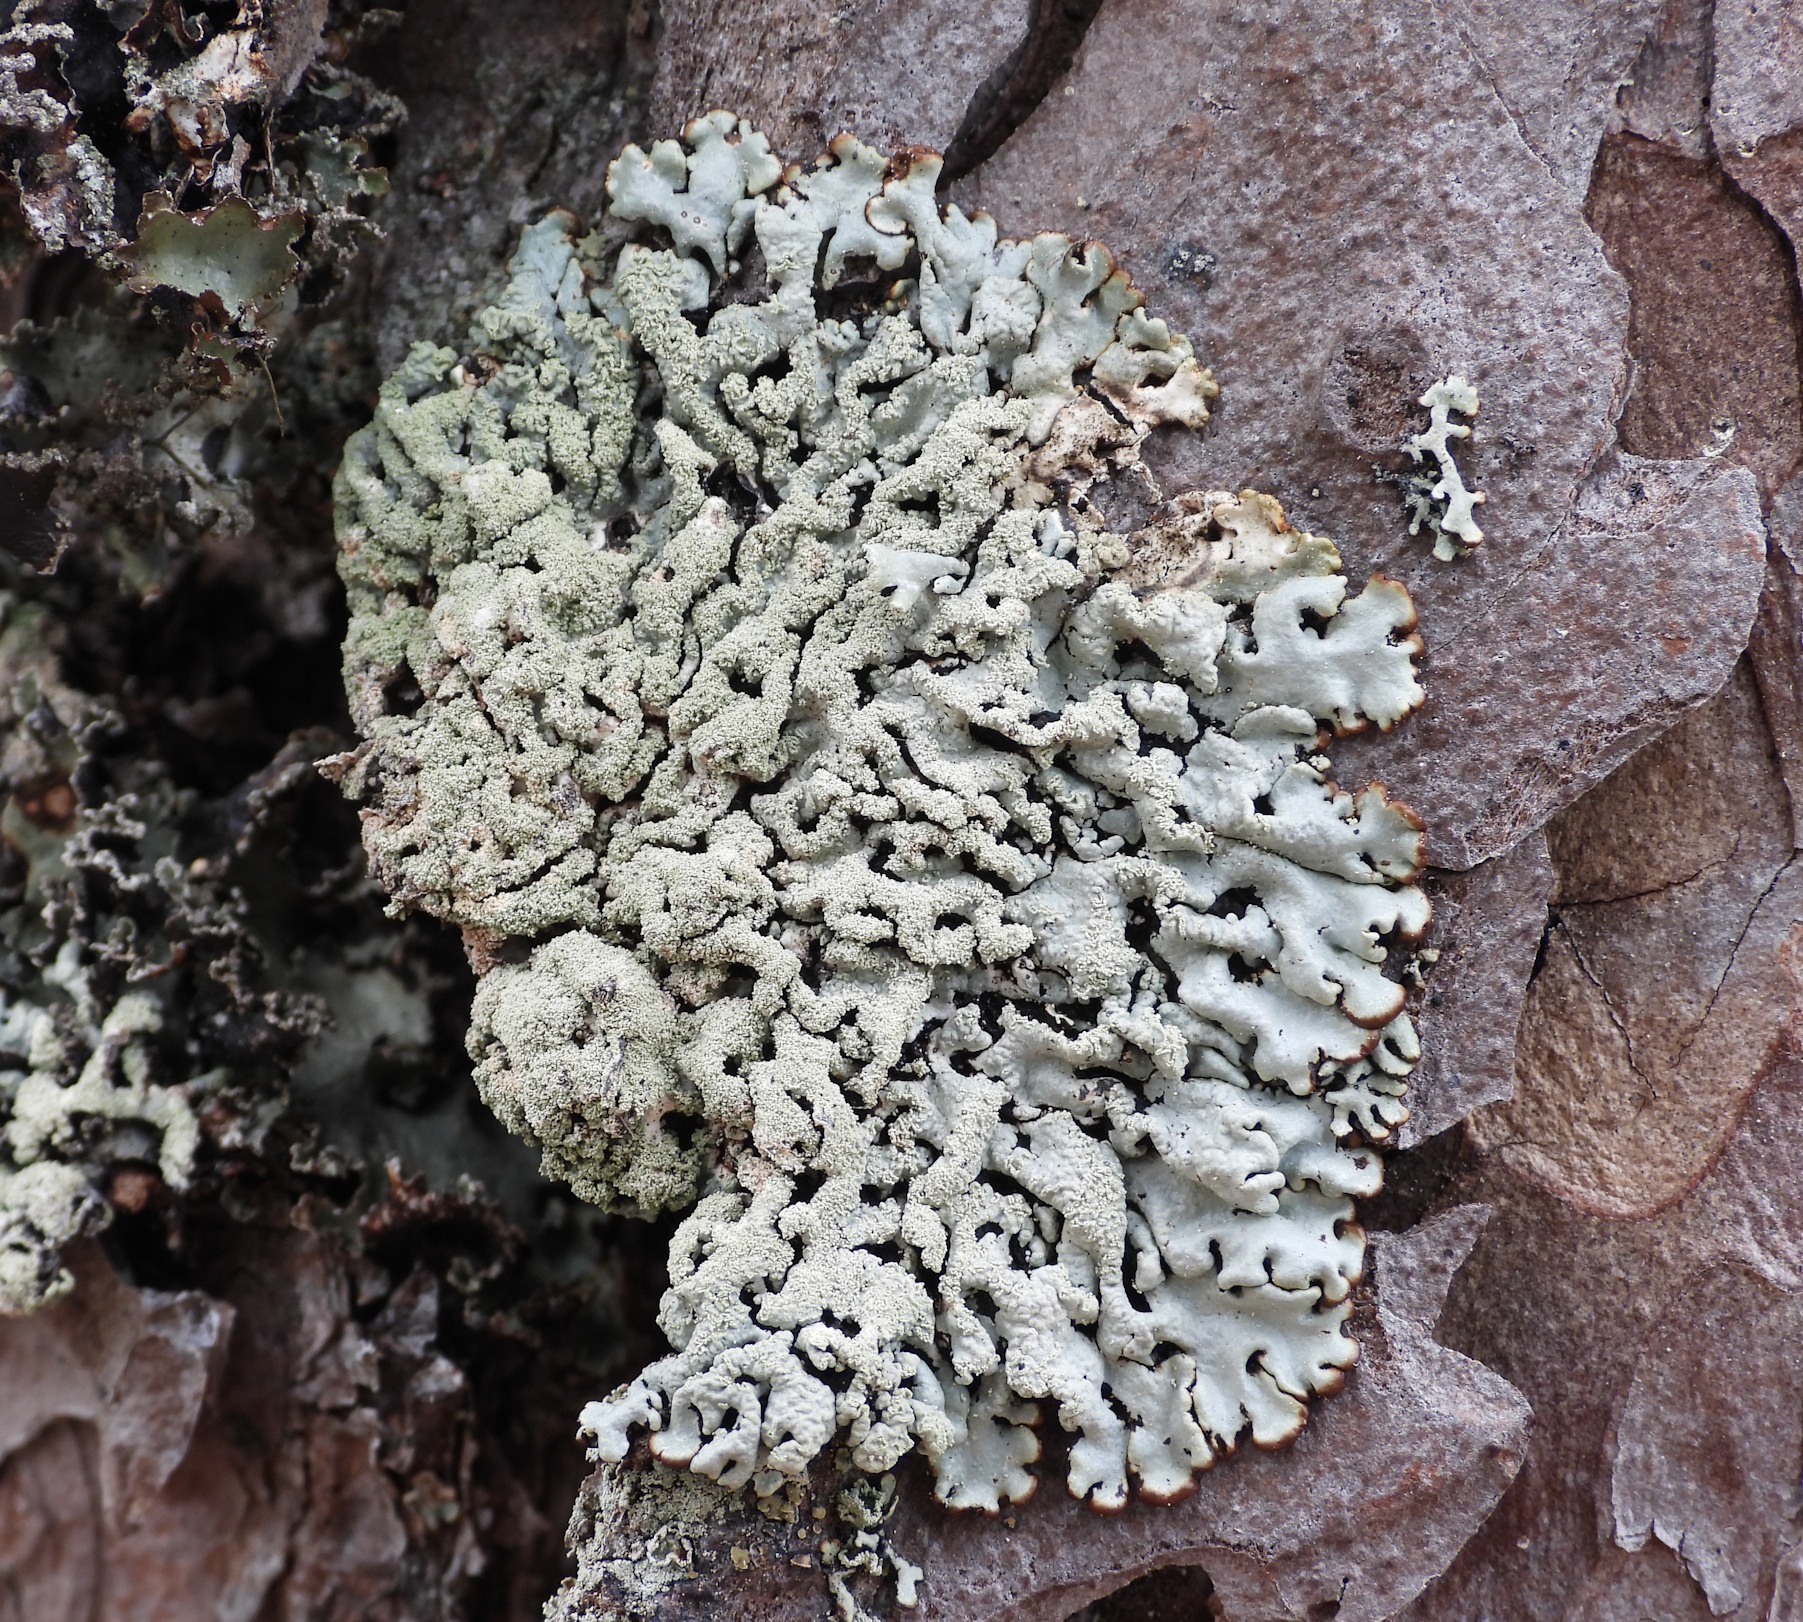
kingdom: Fungi
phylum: Ascomycota
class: Lecanoromycetes
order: Lecanorales
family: Parmeliaceae
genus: Hypogymnia
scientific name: Hypogymnia farinacea
